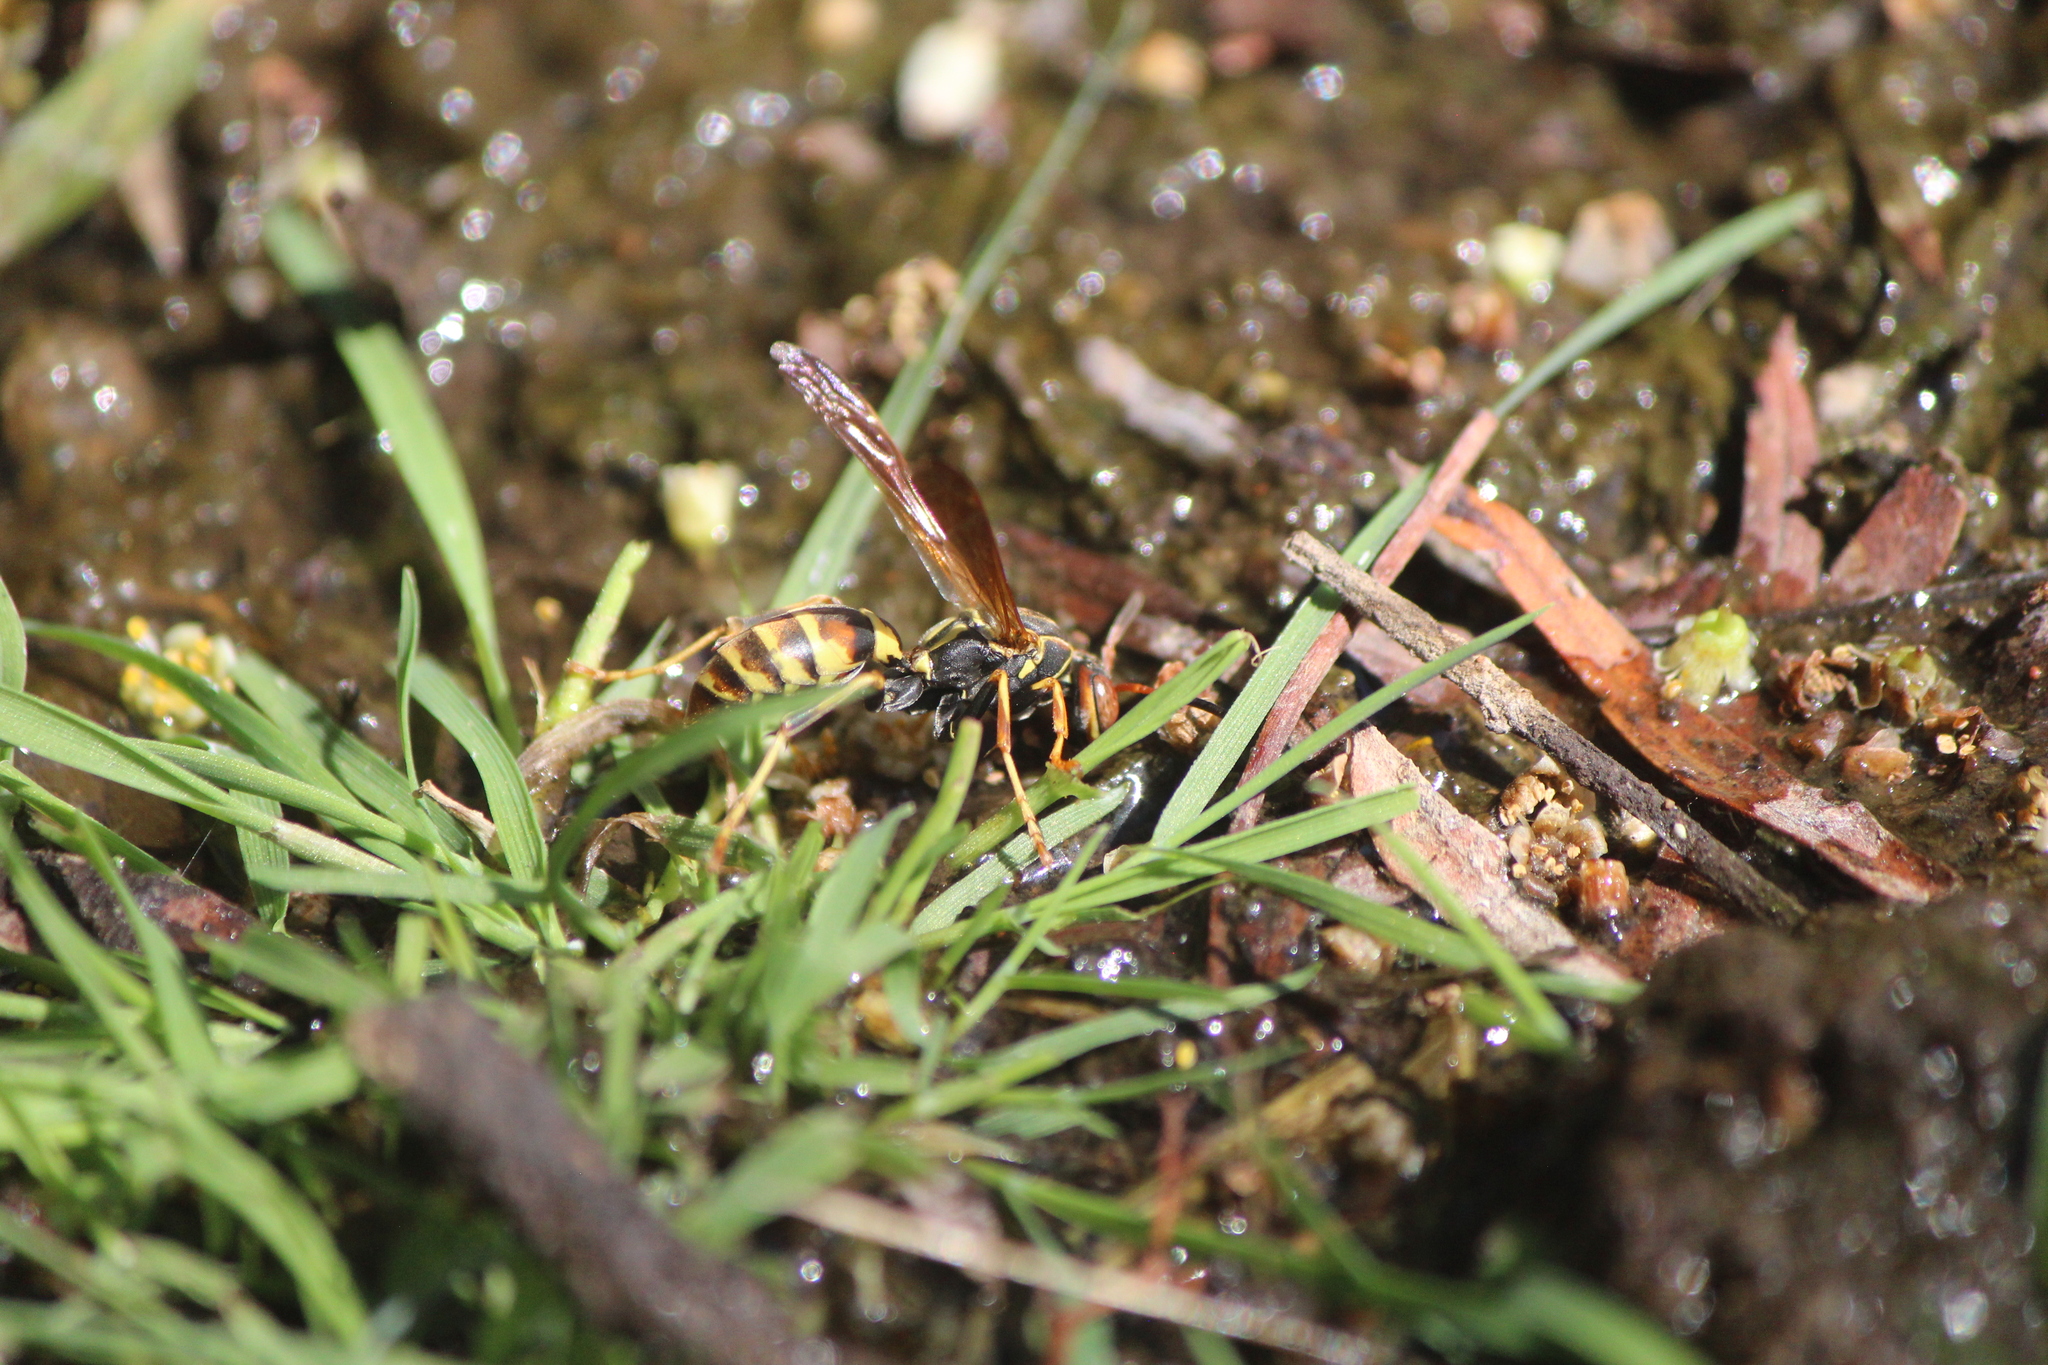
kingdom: Animalia
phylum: Arthropoda
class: Insecta
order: Hymenoptera
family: Eumenidae
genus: Polistes
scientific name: Polistes dorsalis
